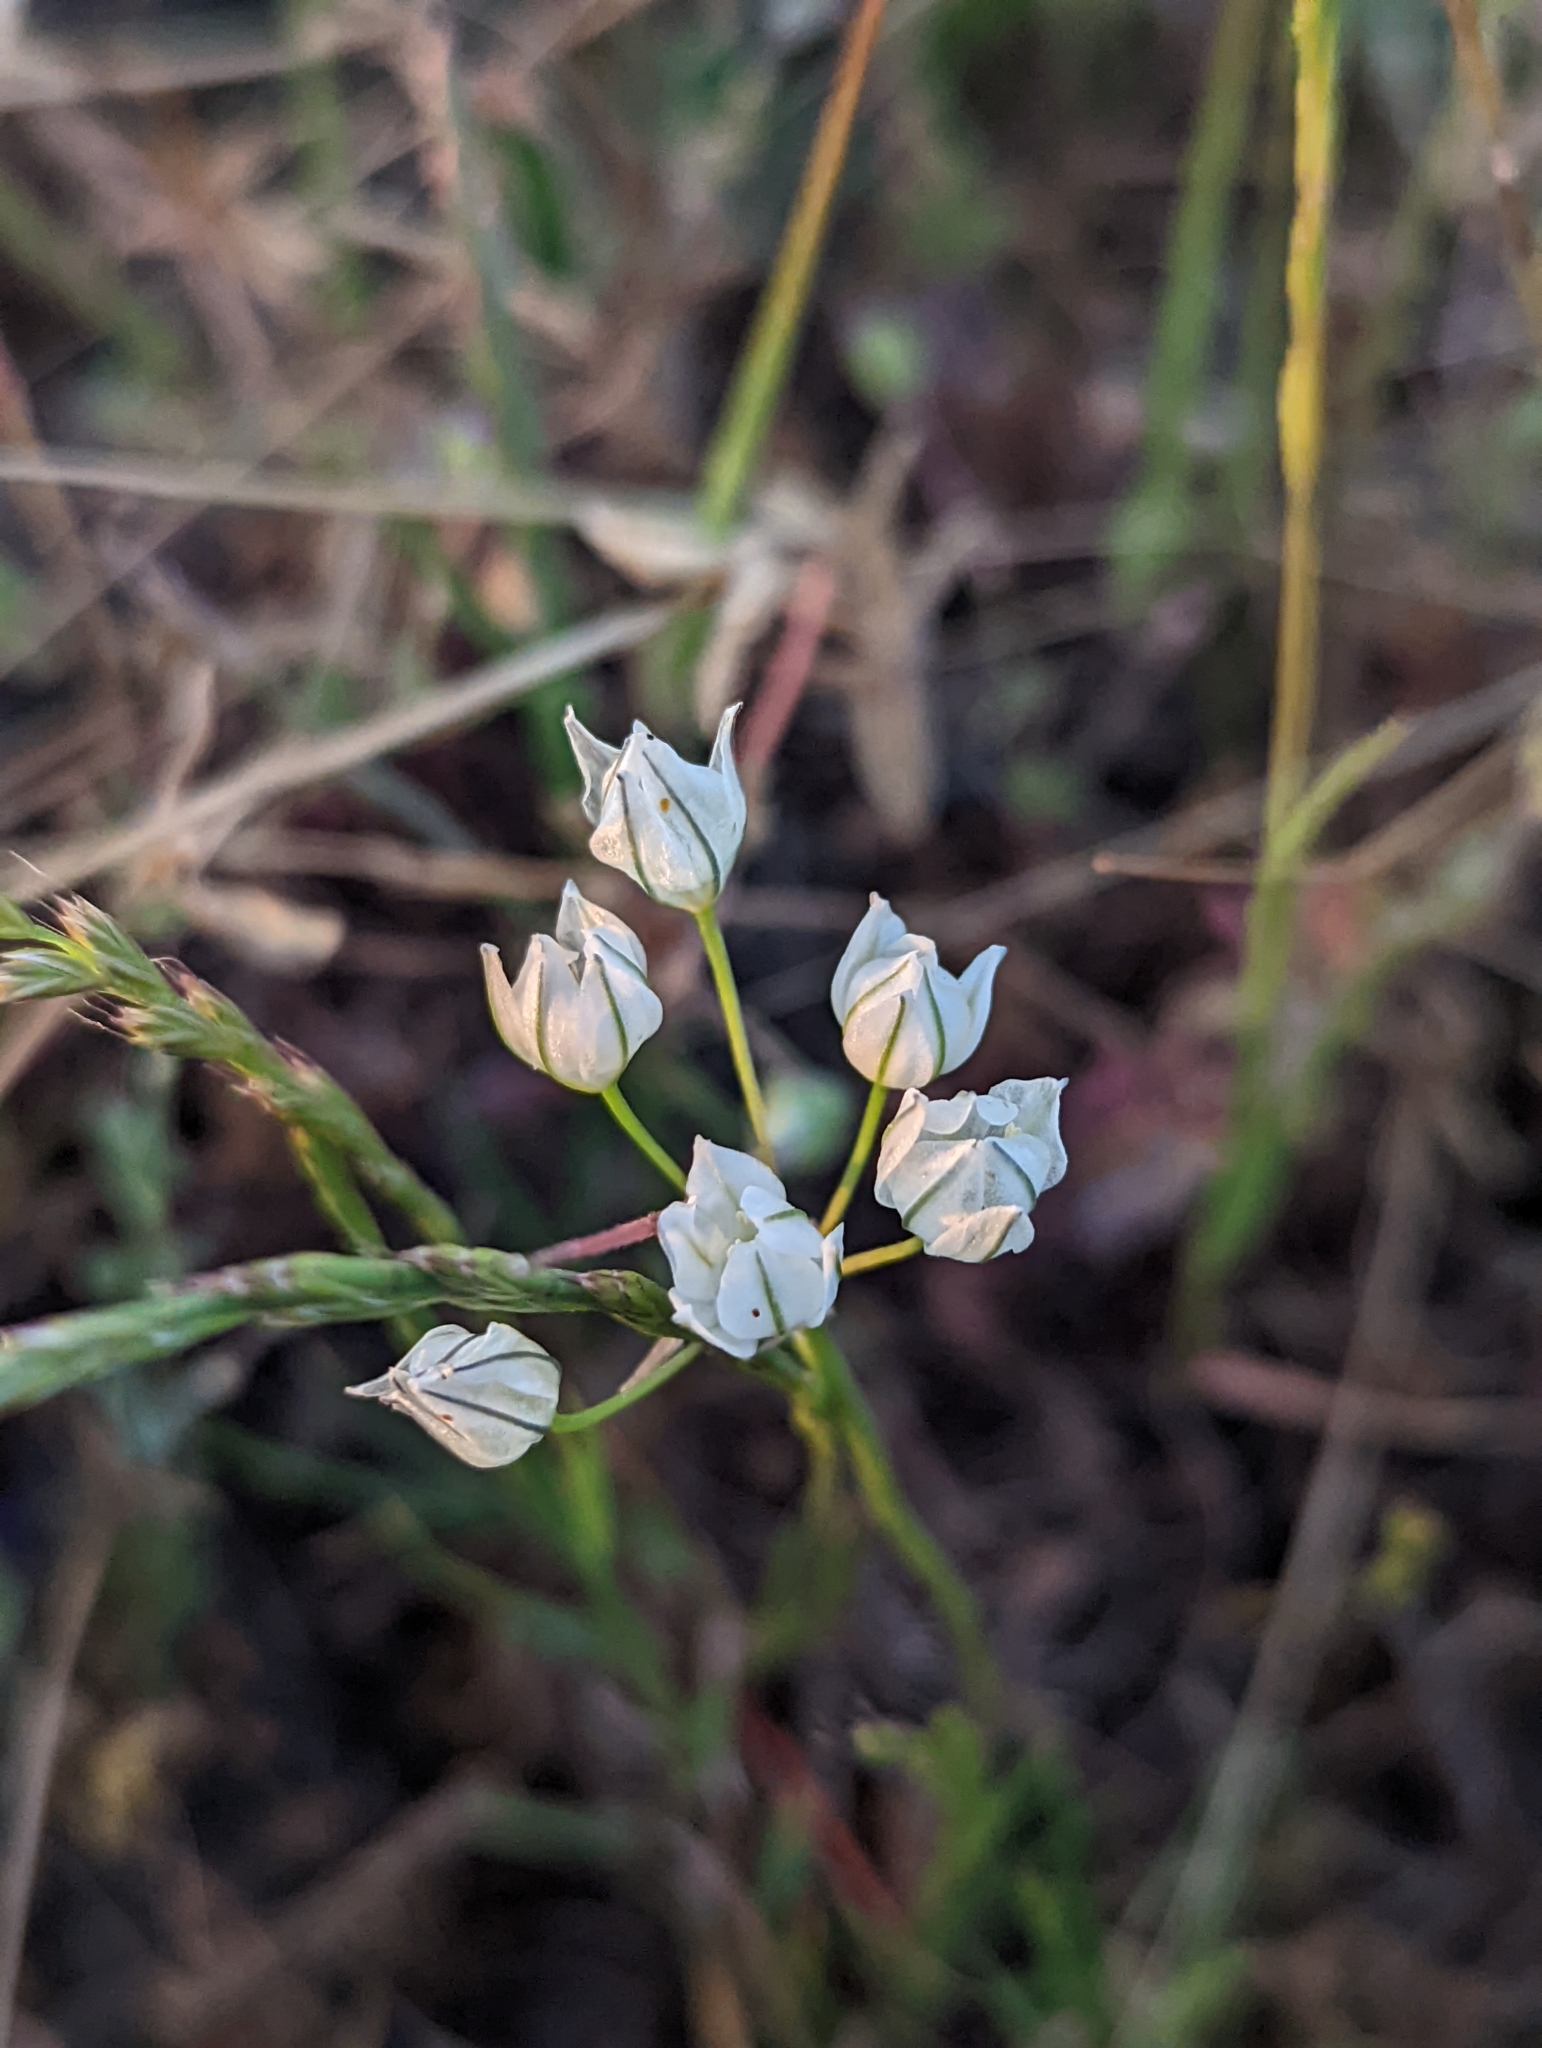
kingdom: Plantae
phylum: Tracheophyta
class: Liliopsida
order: Asparagales
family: Asparagaceae
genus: Triteleia
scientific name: Triteleia hyacinthina
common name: White brodiaea
